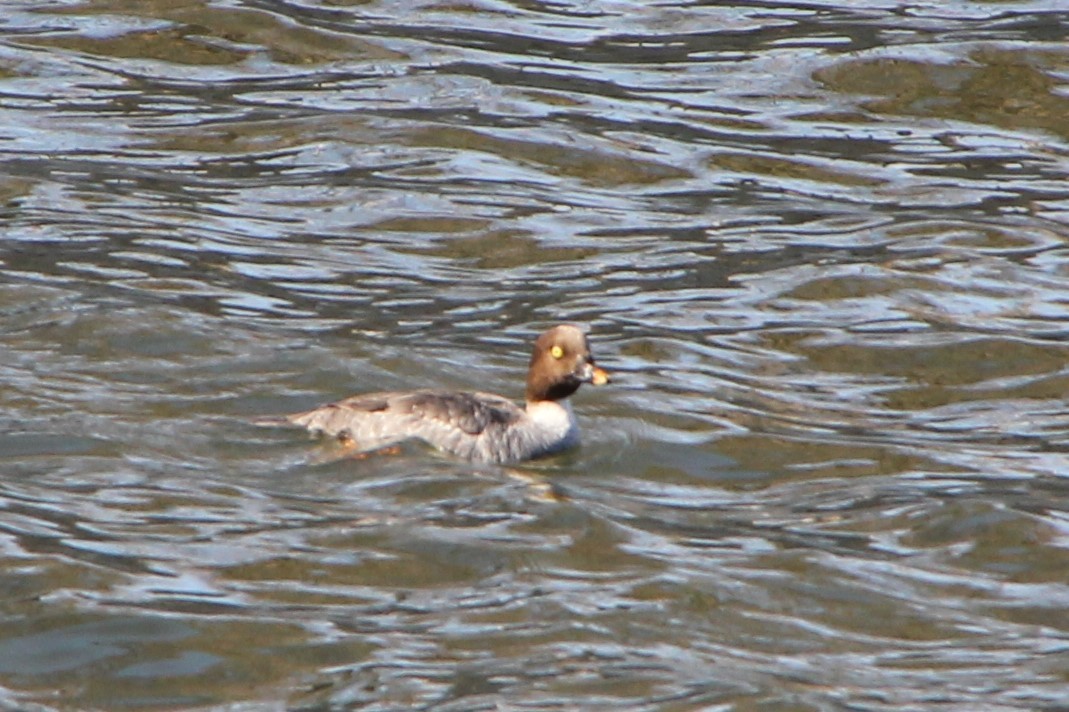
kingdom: Animalia
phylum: Chordata
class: Aves
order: Anseriformes
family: Anatidae
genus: Bucephala
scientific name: Bucephala clangula
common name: Common goldeneye
